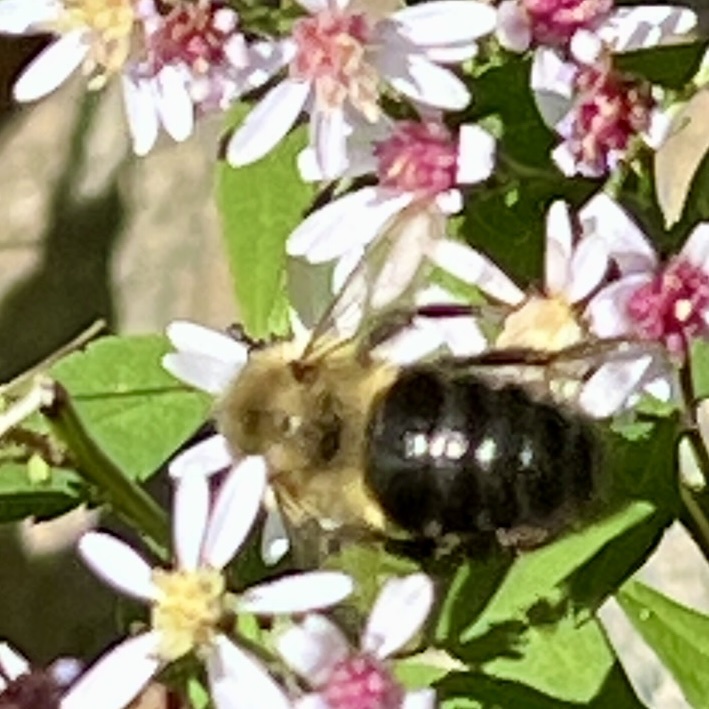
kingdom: Animalia
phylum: Arthropoda
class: Insecta
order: Hymenoptera
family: Apidae
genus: Bombus
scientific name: Bombus impatiens
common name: Common eastern bumble bee
